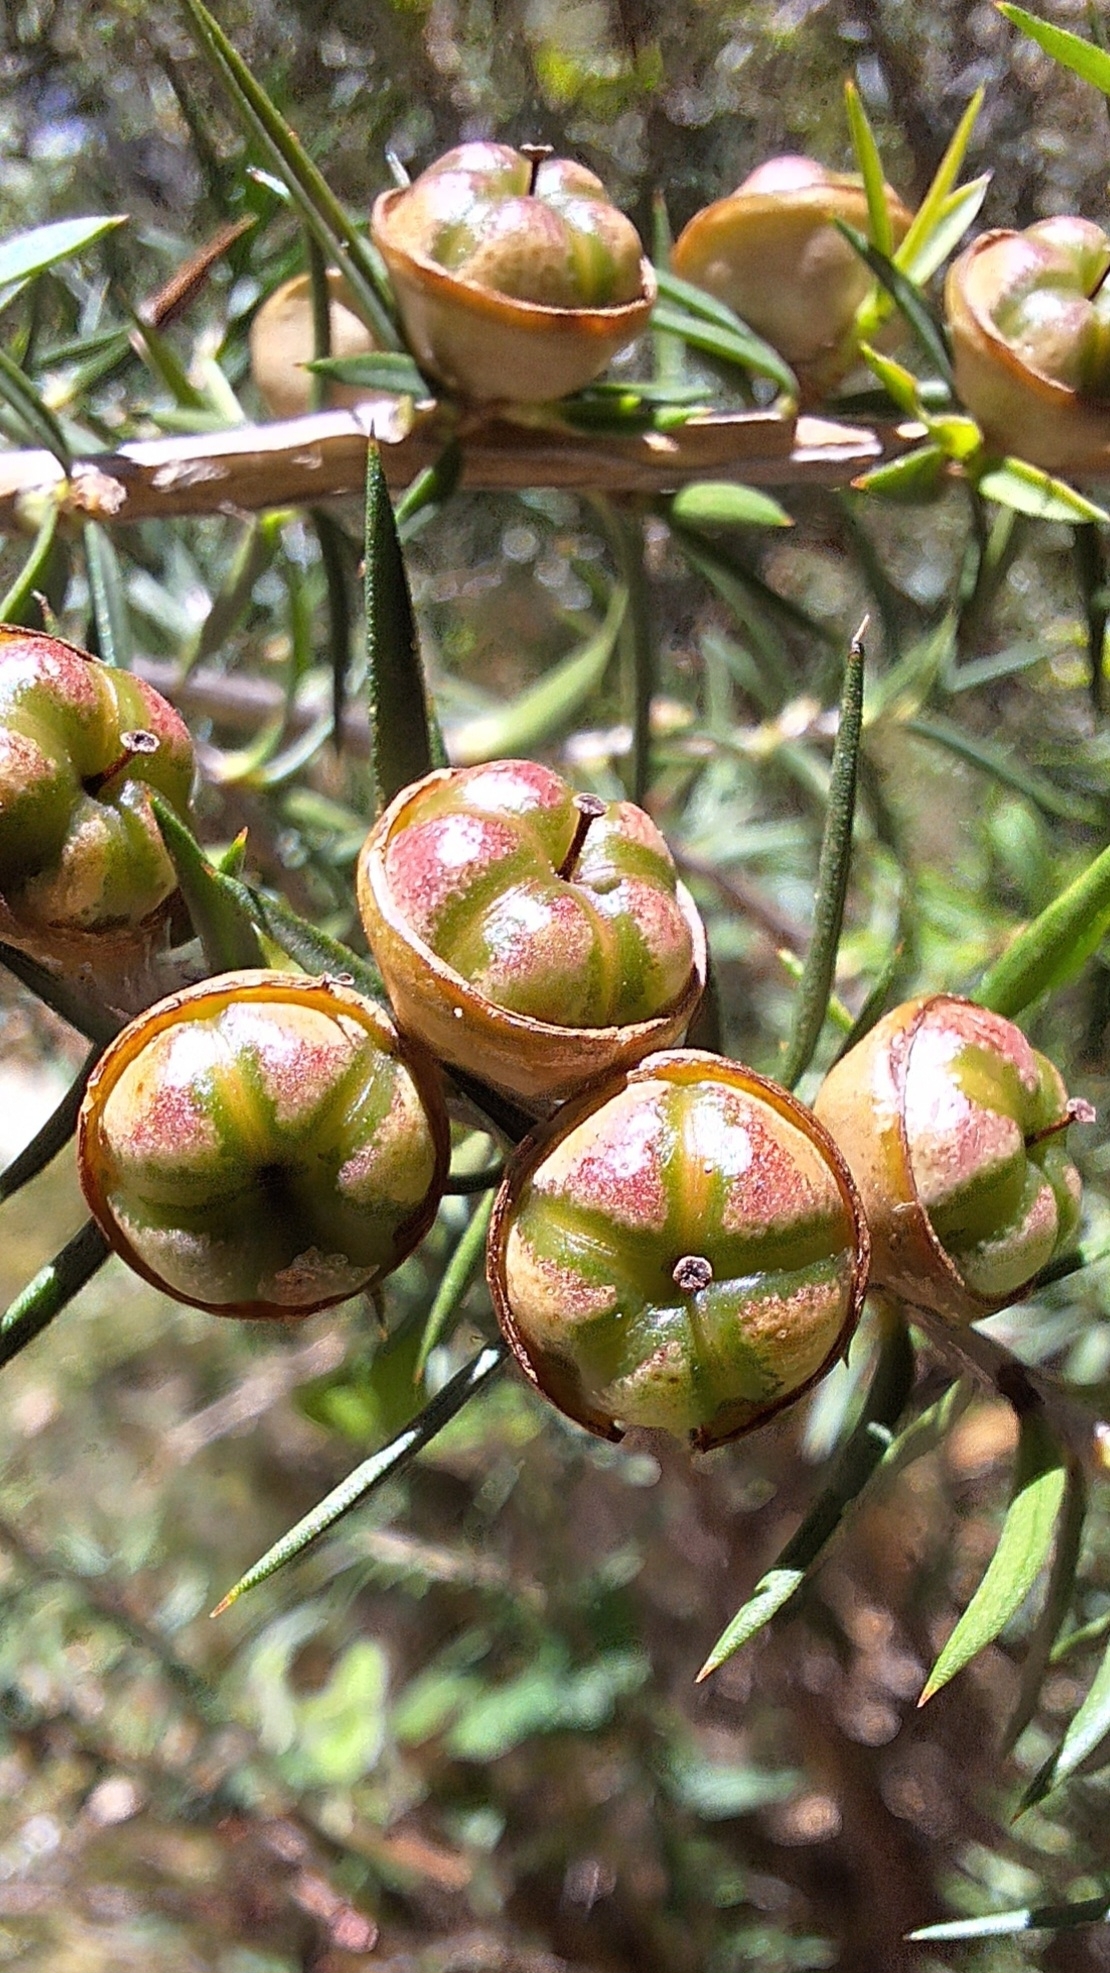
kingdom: Plantae
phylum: Tracheophyta
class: Magnoliopsida
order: Myrtales
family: Myrtaceae
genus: Leptospermum
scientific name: Leptospermum continentale
